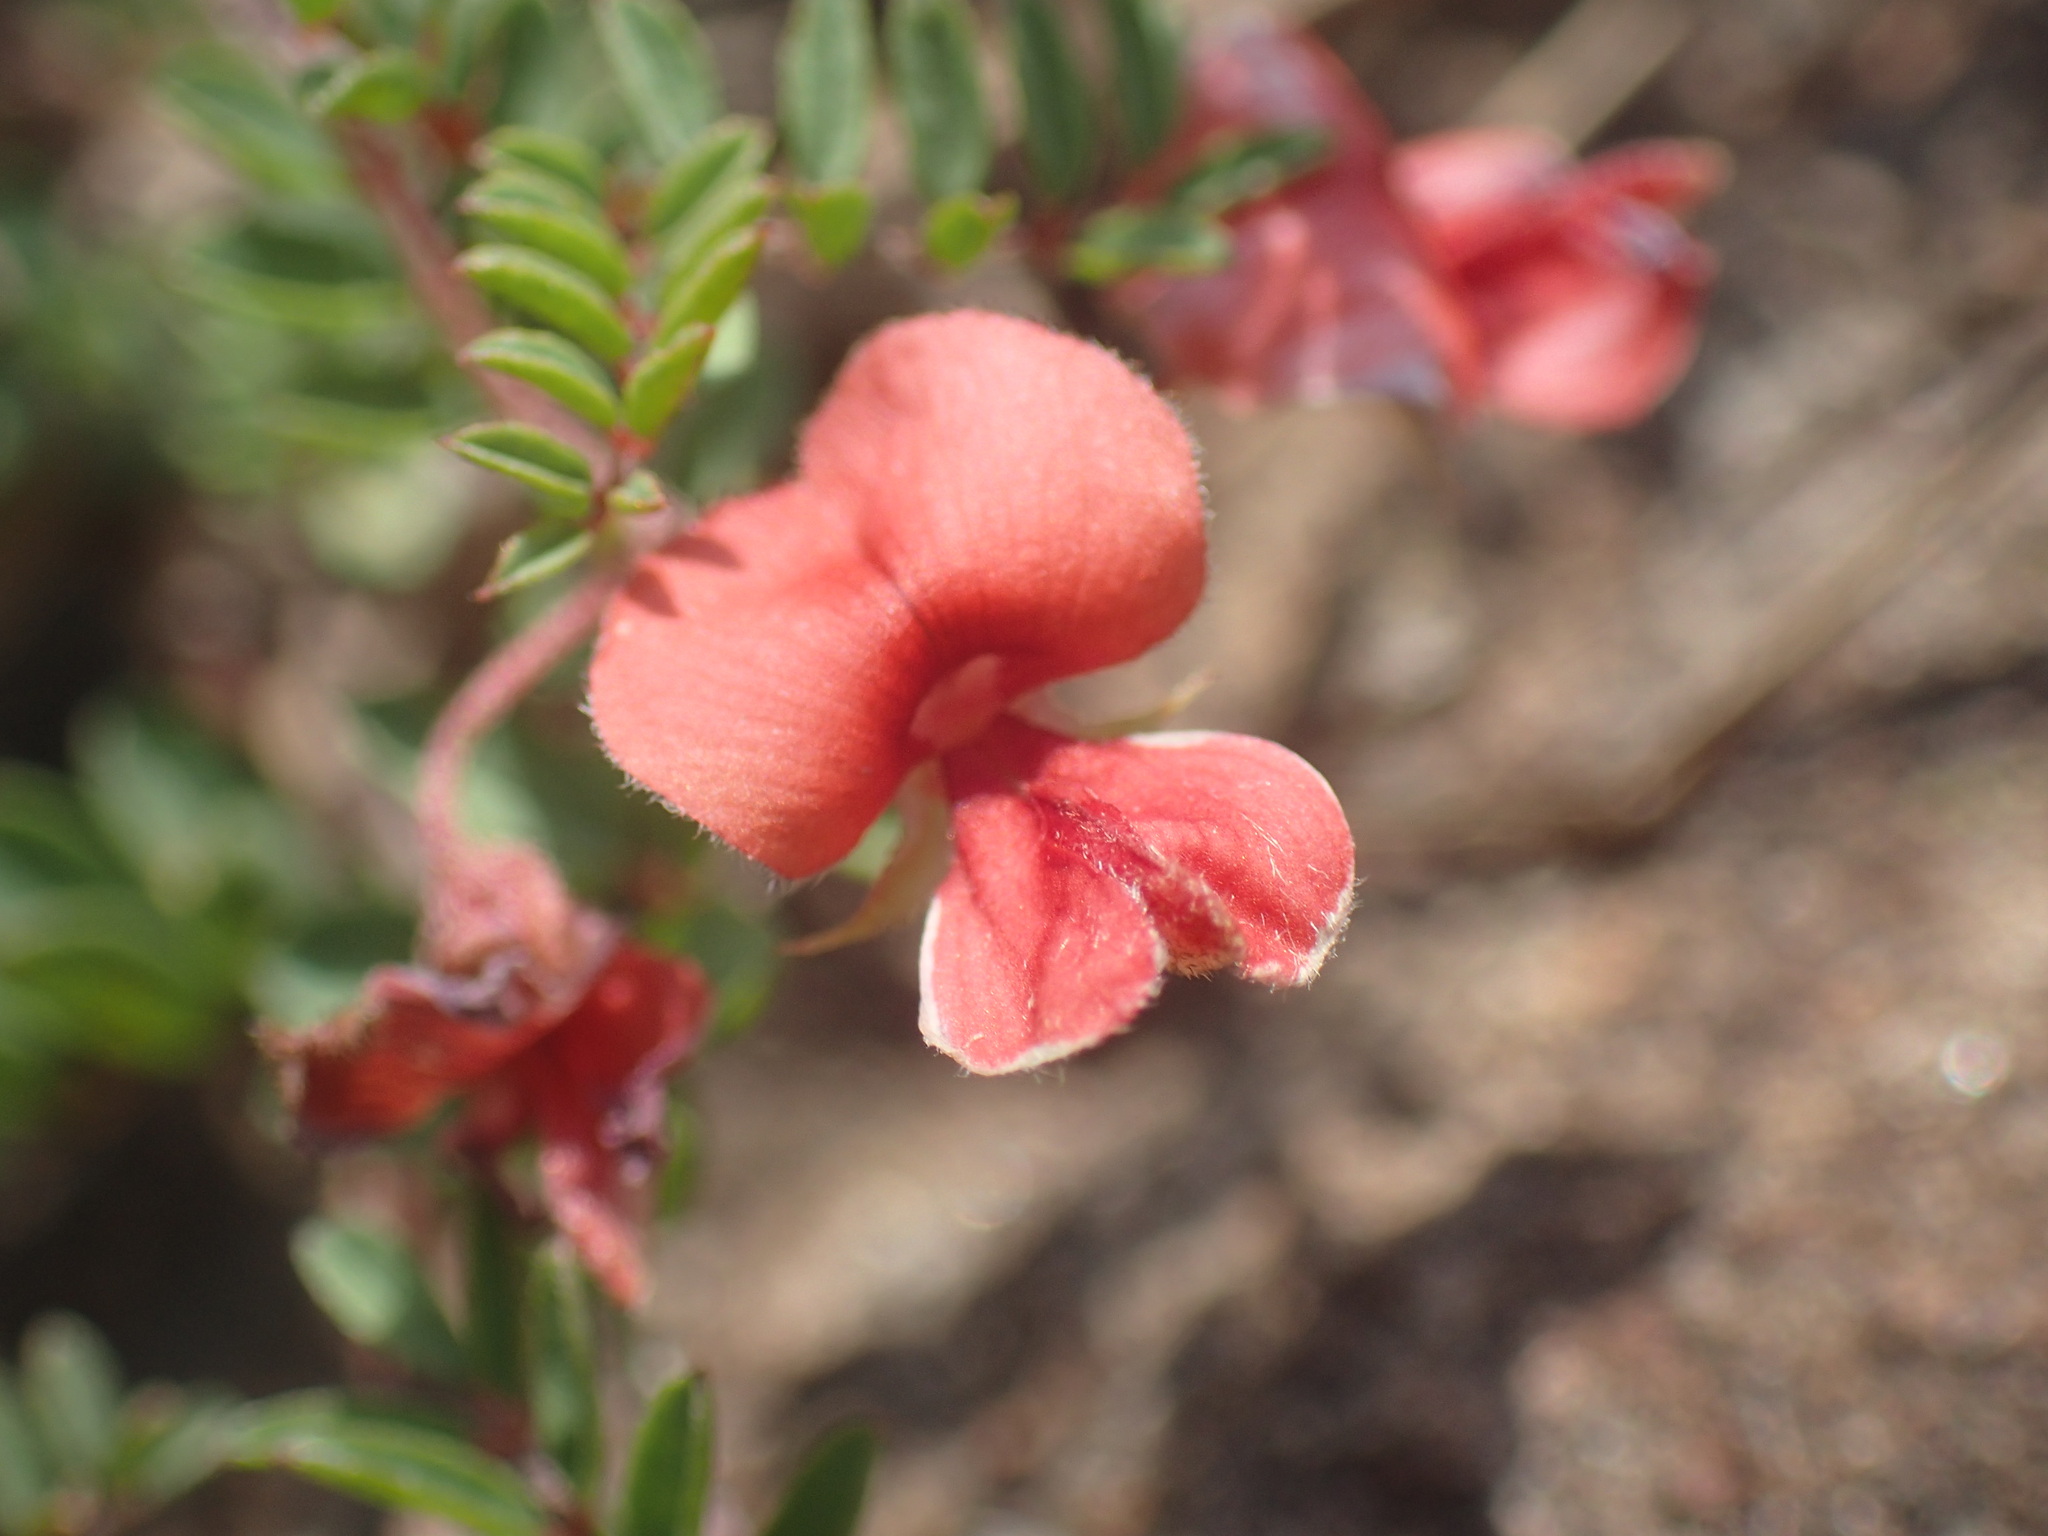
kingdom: Plantae
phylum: Tracheophyta
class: Magnoliopsida
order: Fabales
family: Fabaceae
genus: Indigofera
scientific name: Indigofera woodii
